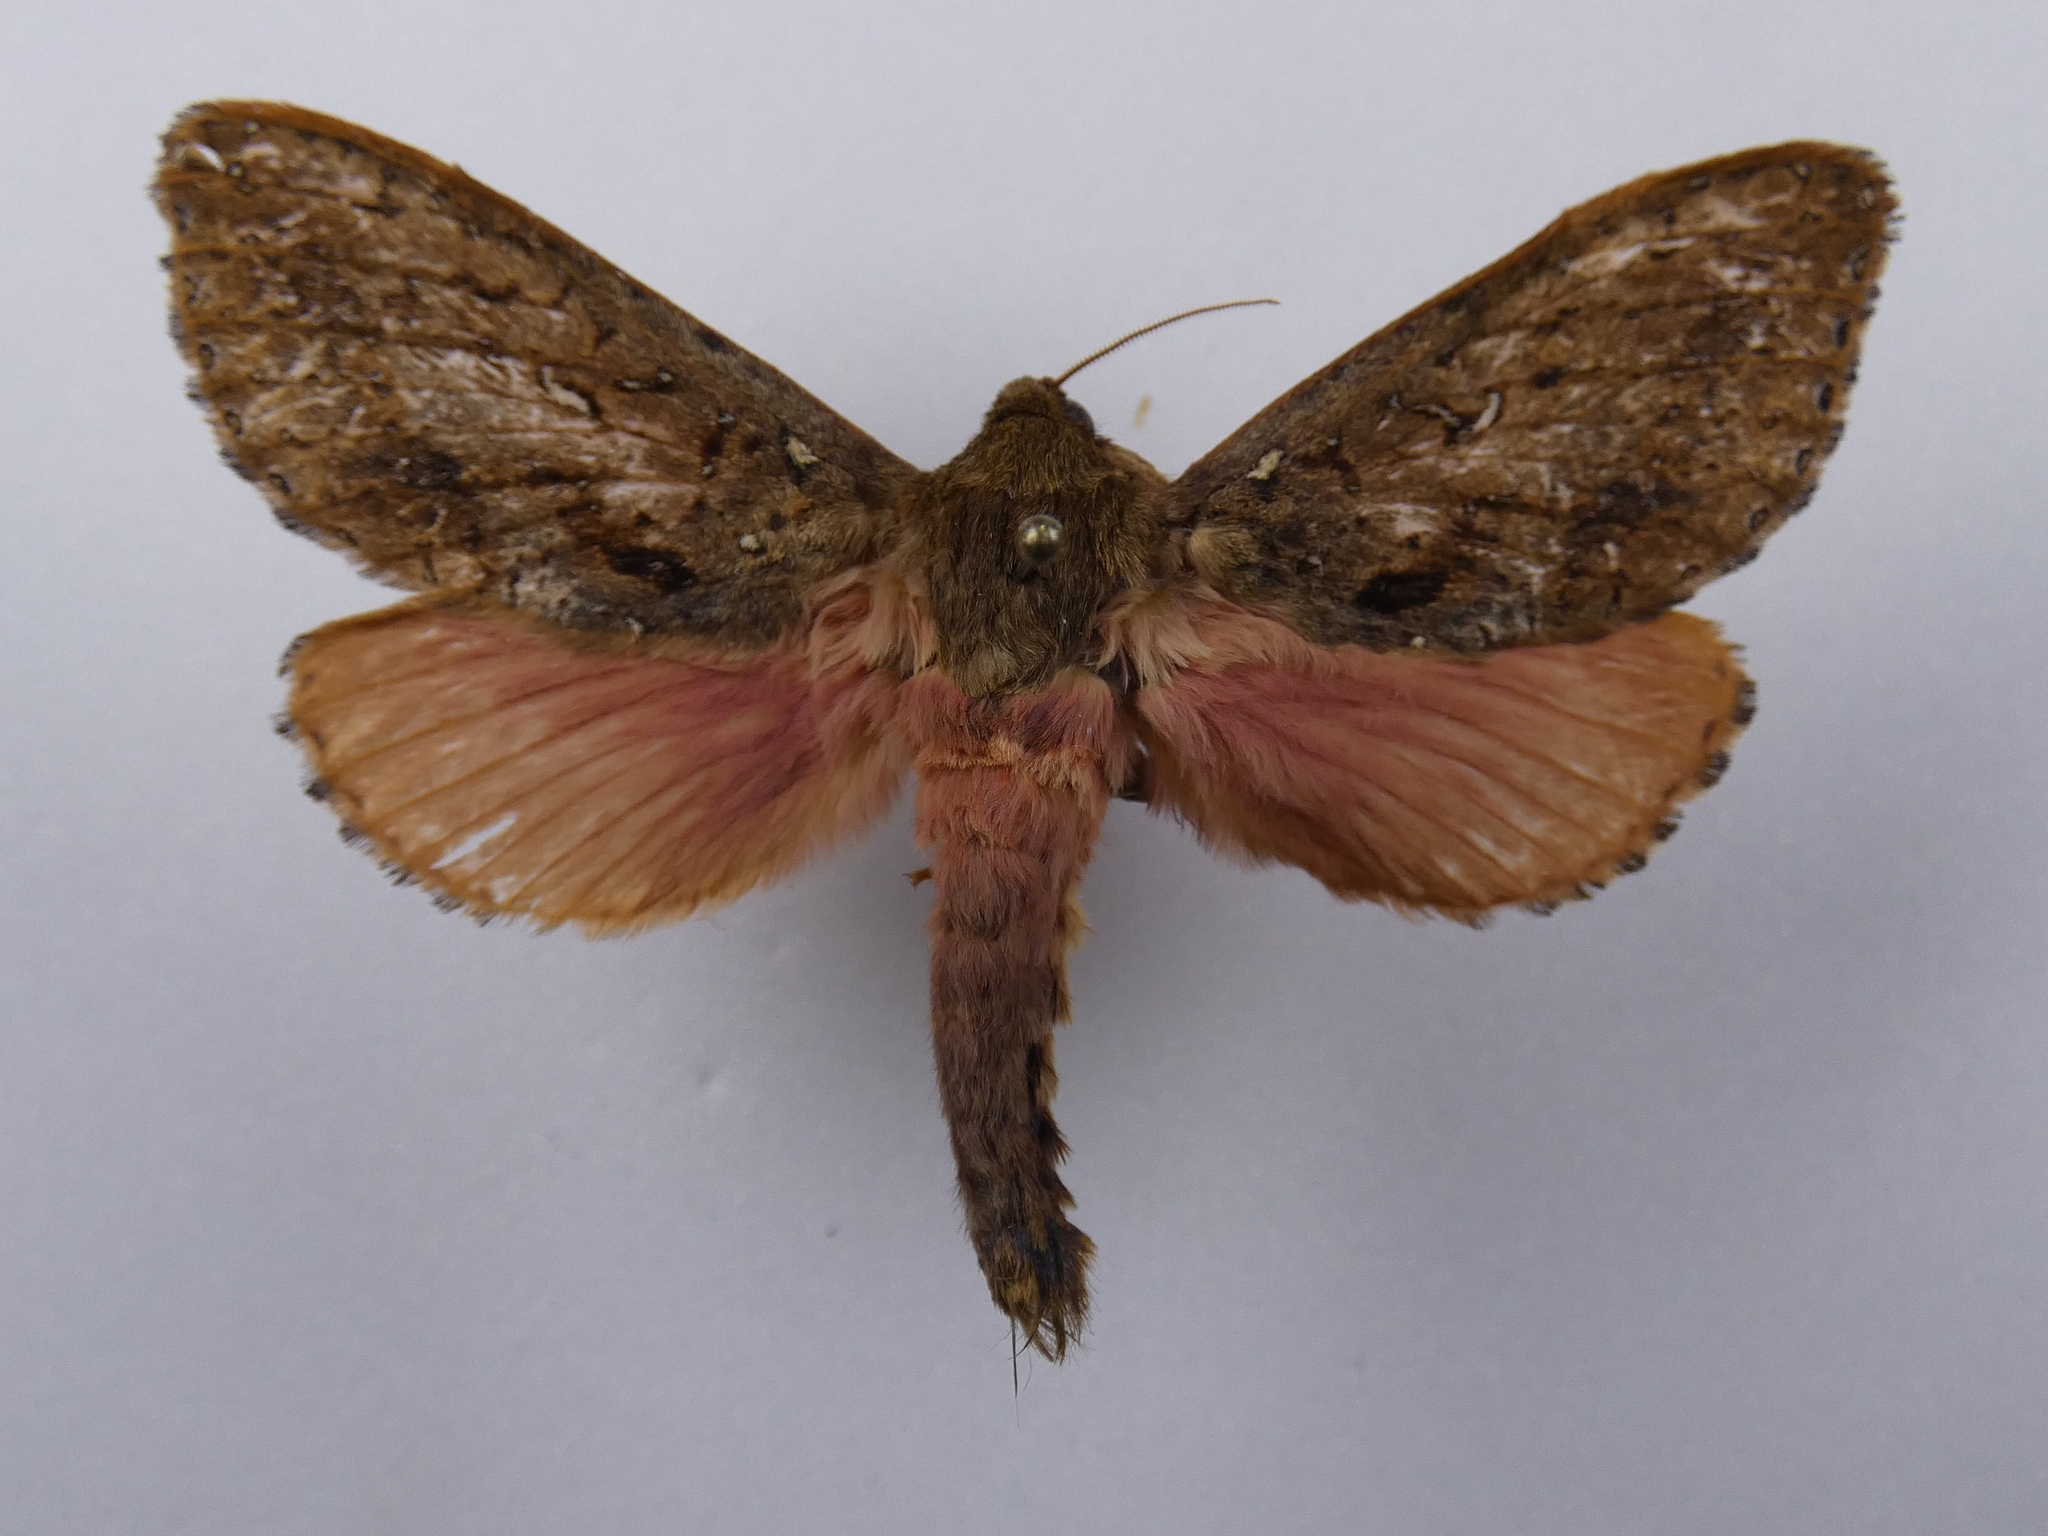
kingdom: Animalia
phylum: Arthropoda
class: Insecta
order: Lepidoptera
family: Hepialidae
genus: Dumbletonius
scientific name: Dumbletonius unimaculata
